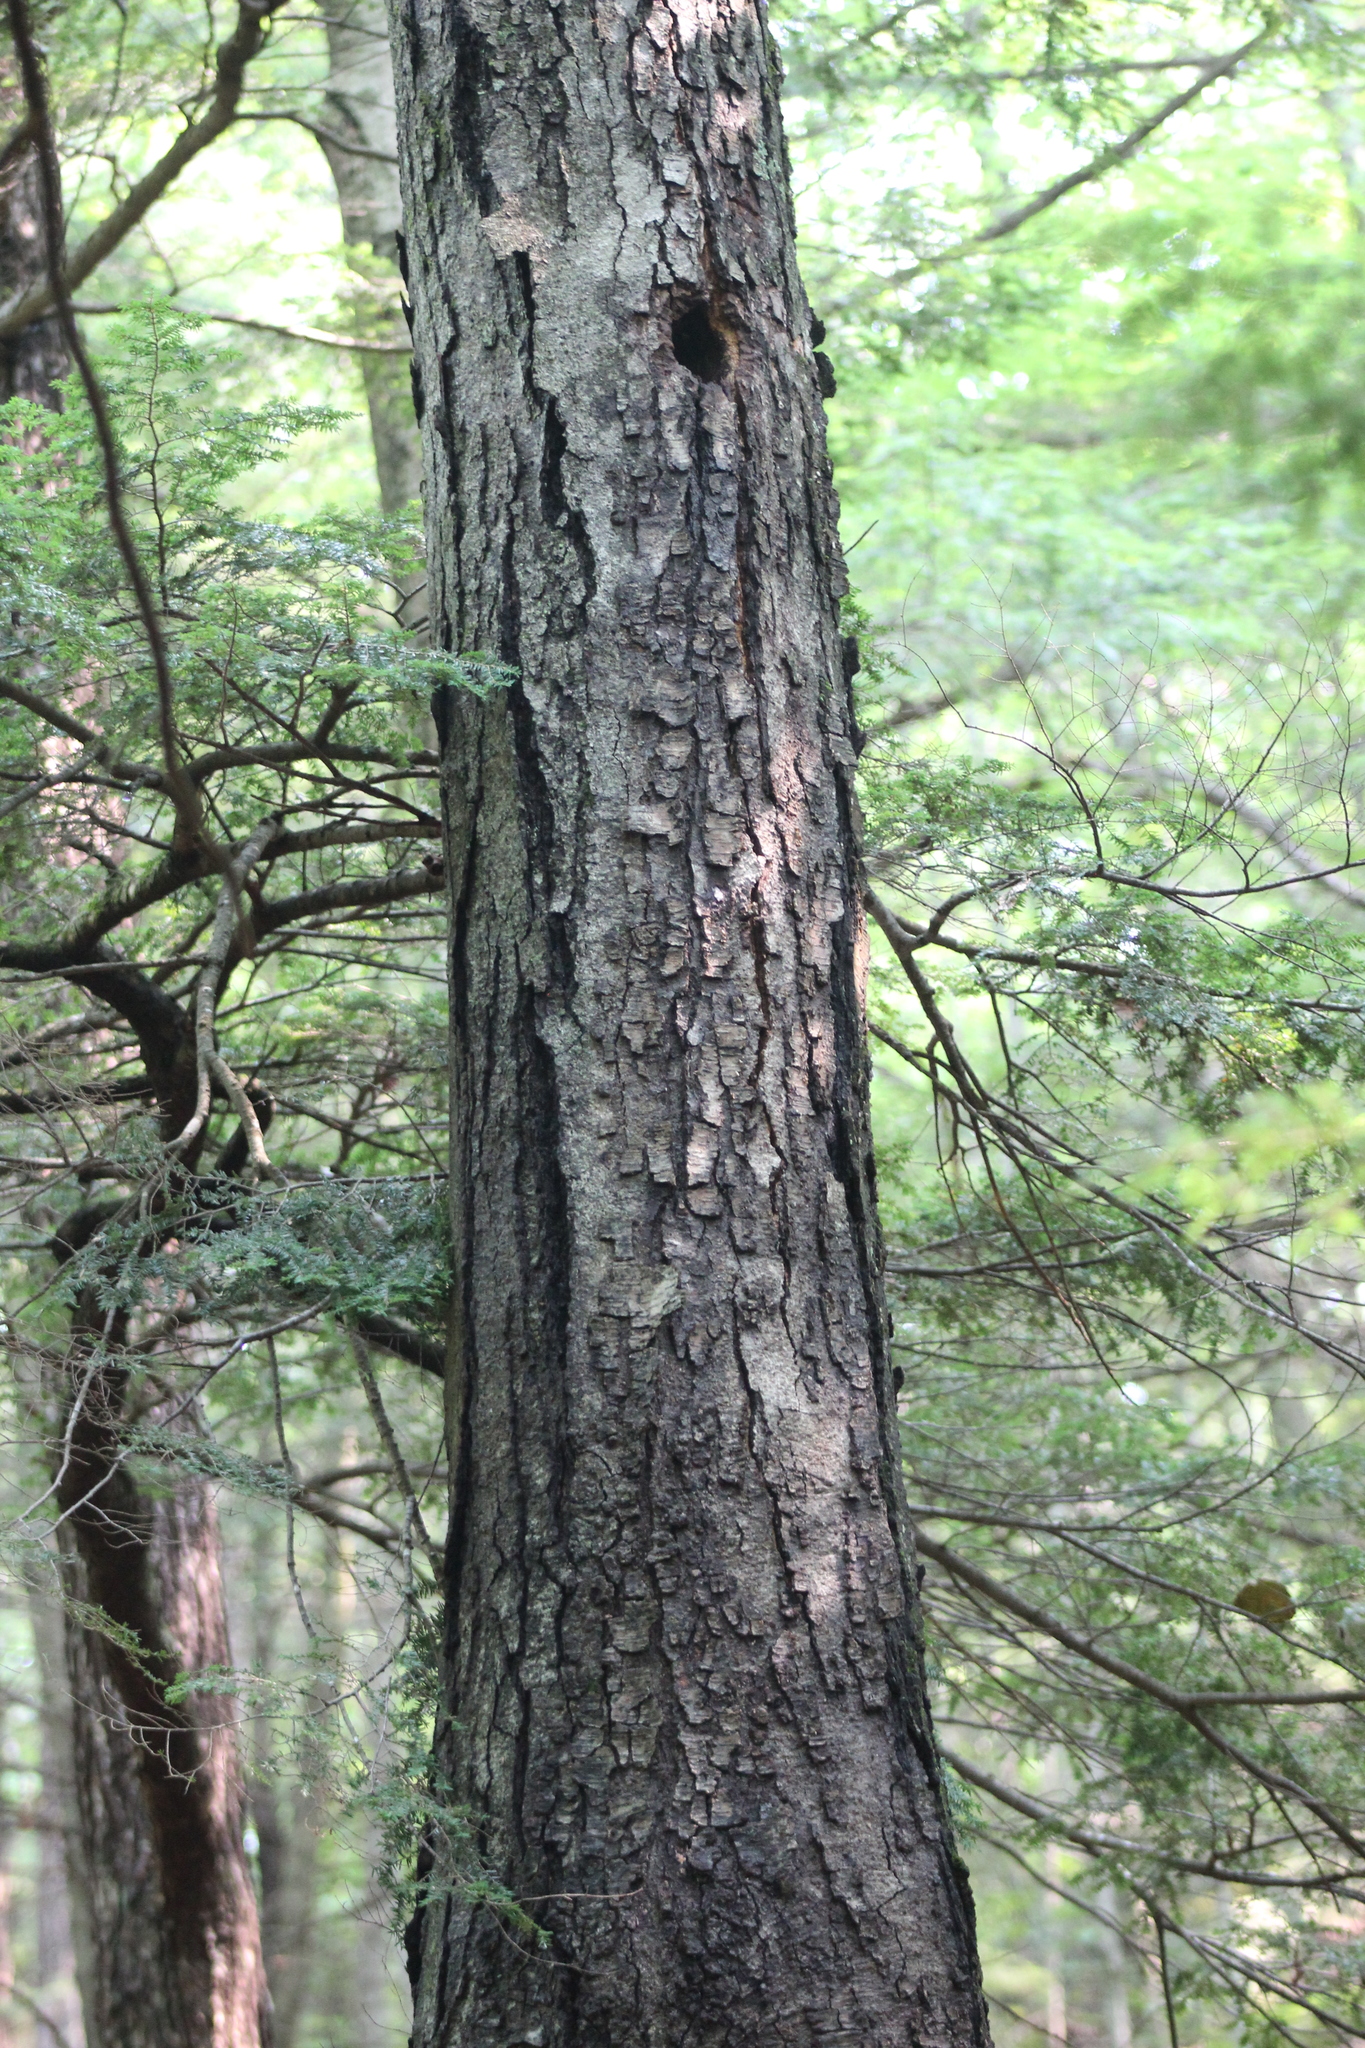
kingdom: Plantae
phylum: Tracheophyta
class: Magnoliopsida
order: Fagales
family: Betulaceae
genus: Betula
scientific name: Betula lenta
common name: Black birch
